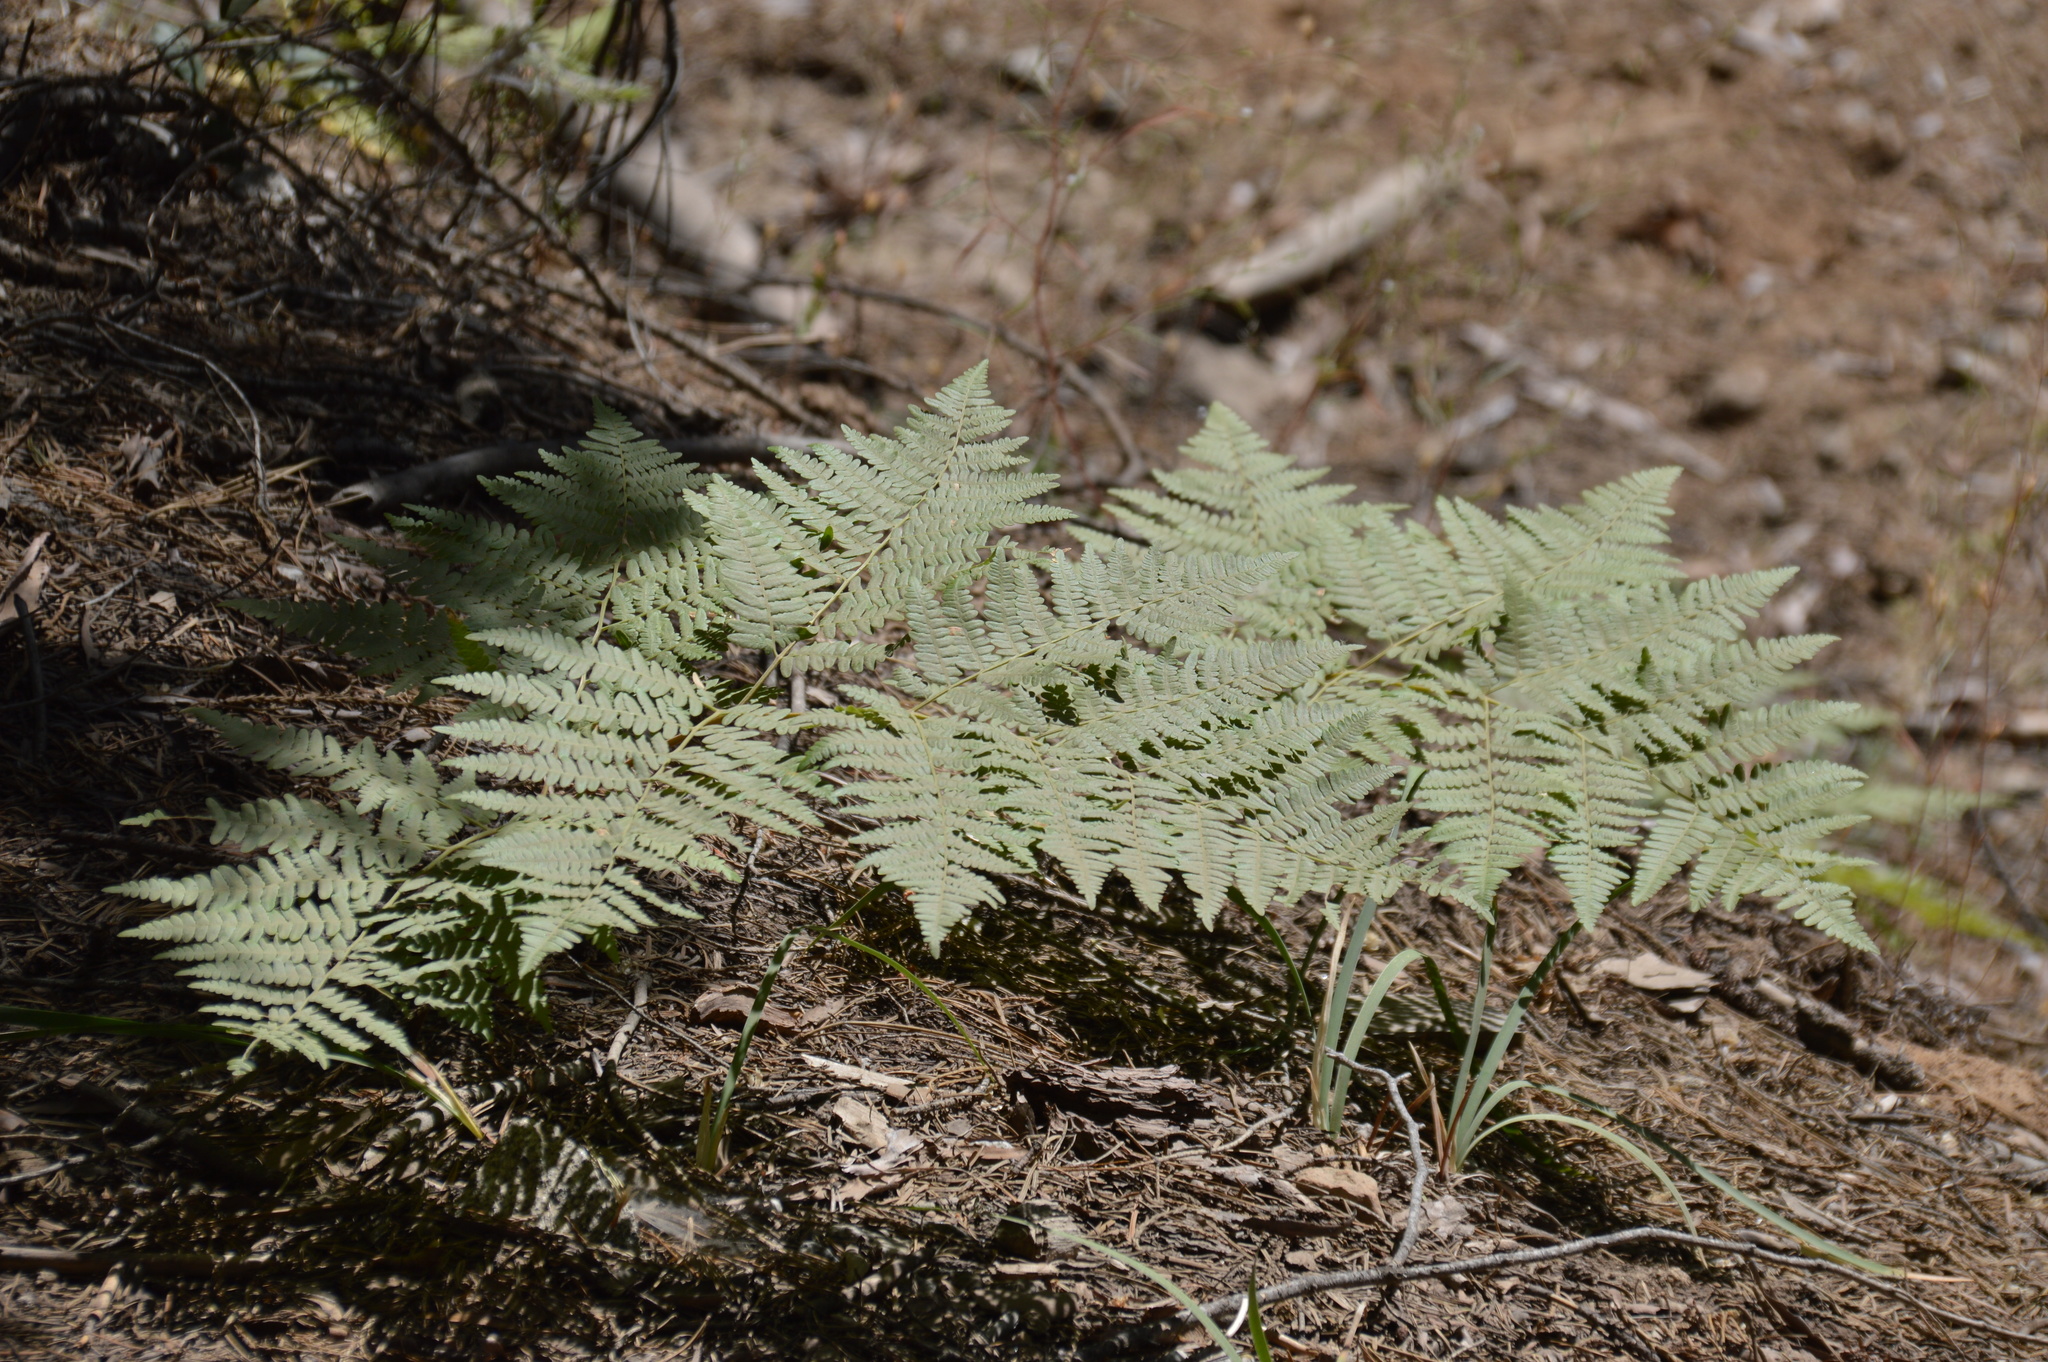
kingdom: Plantae
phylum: Tracheophyta
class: Polypodiopsida
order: Polypodiales
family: Dennstaedtiaceae
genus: Pteridium
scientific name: Pteridium aquilinum
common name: Bracken
